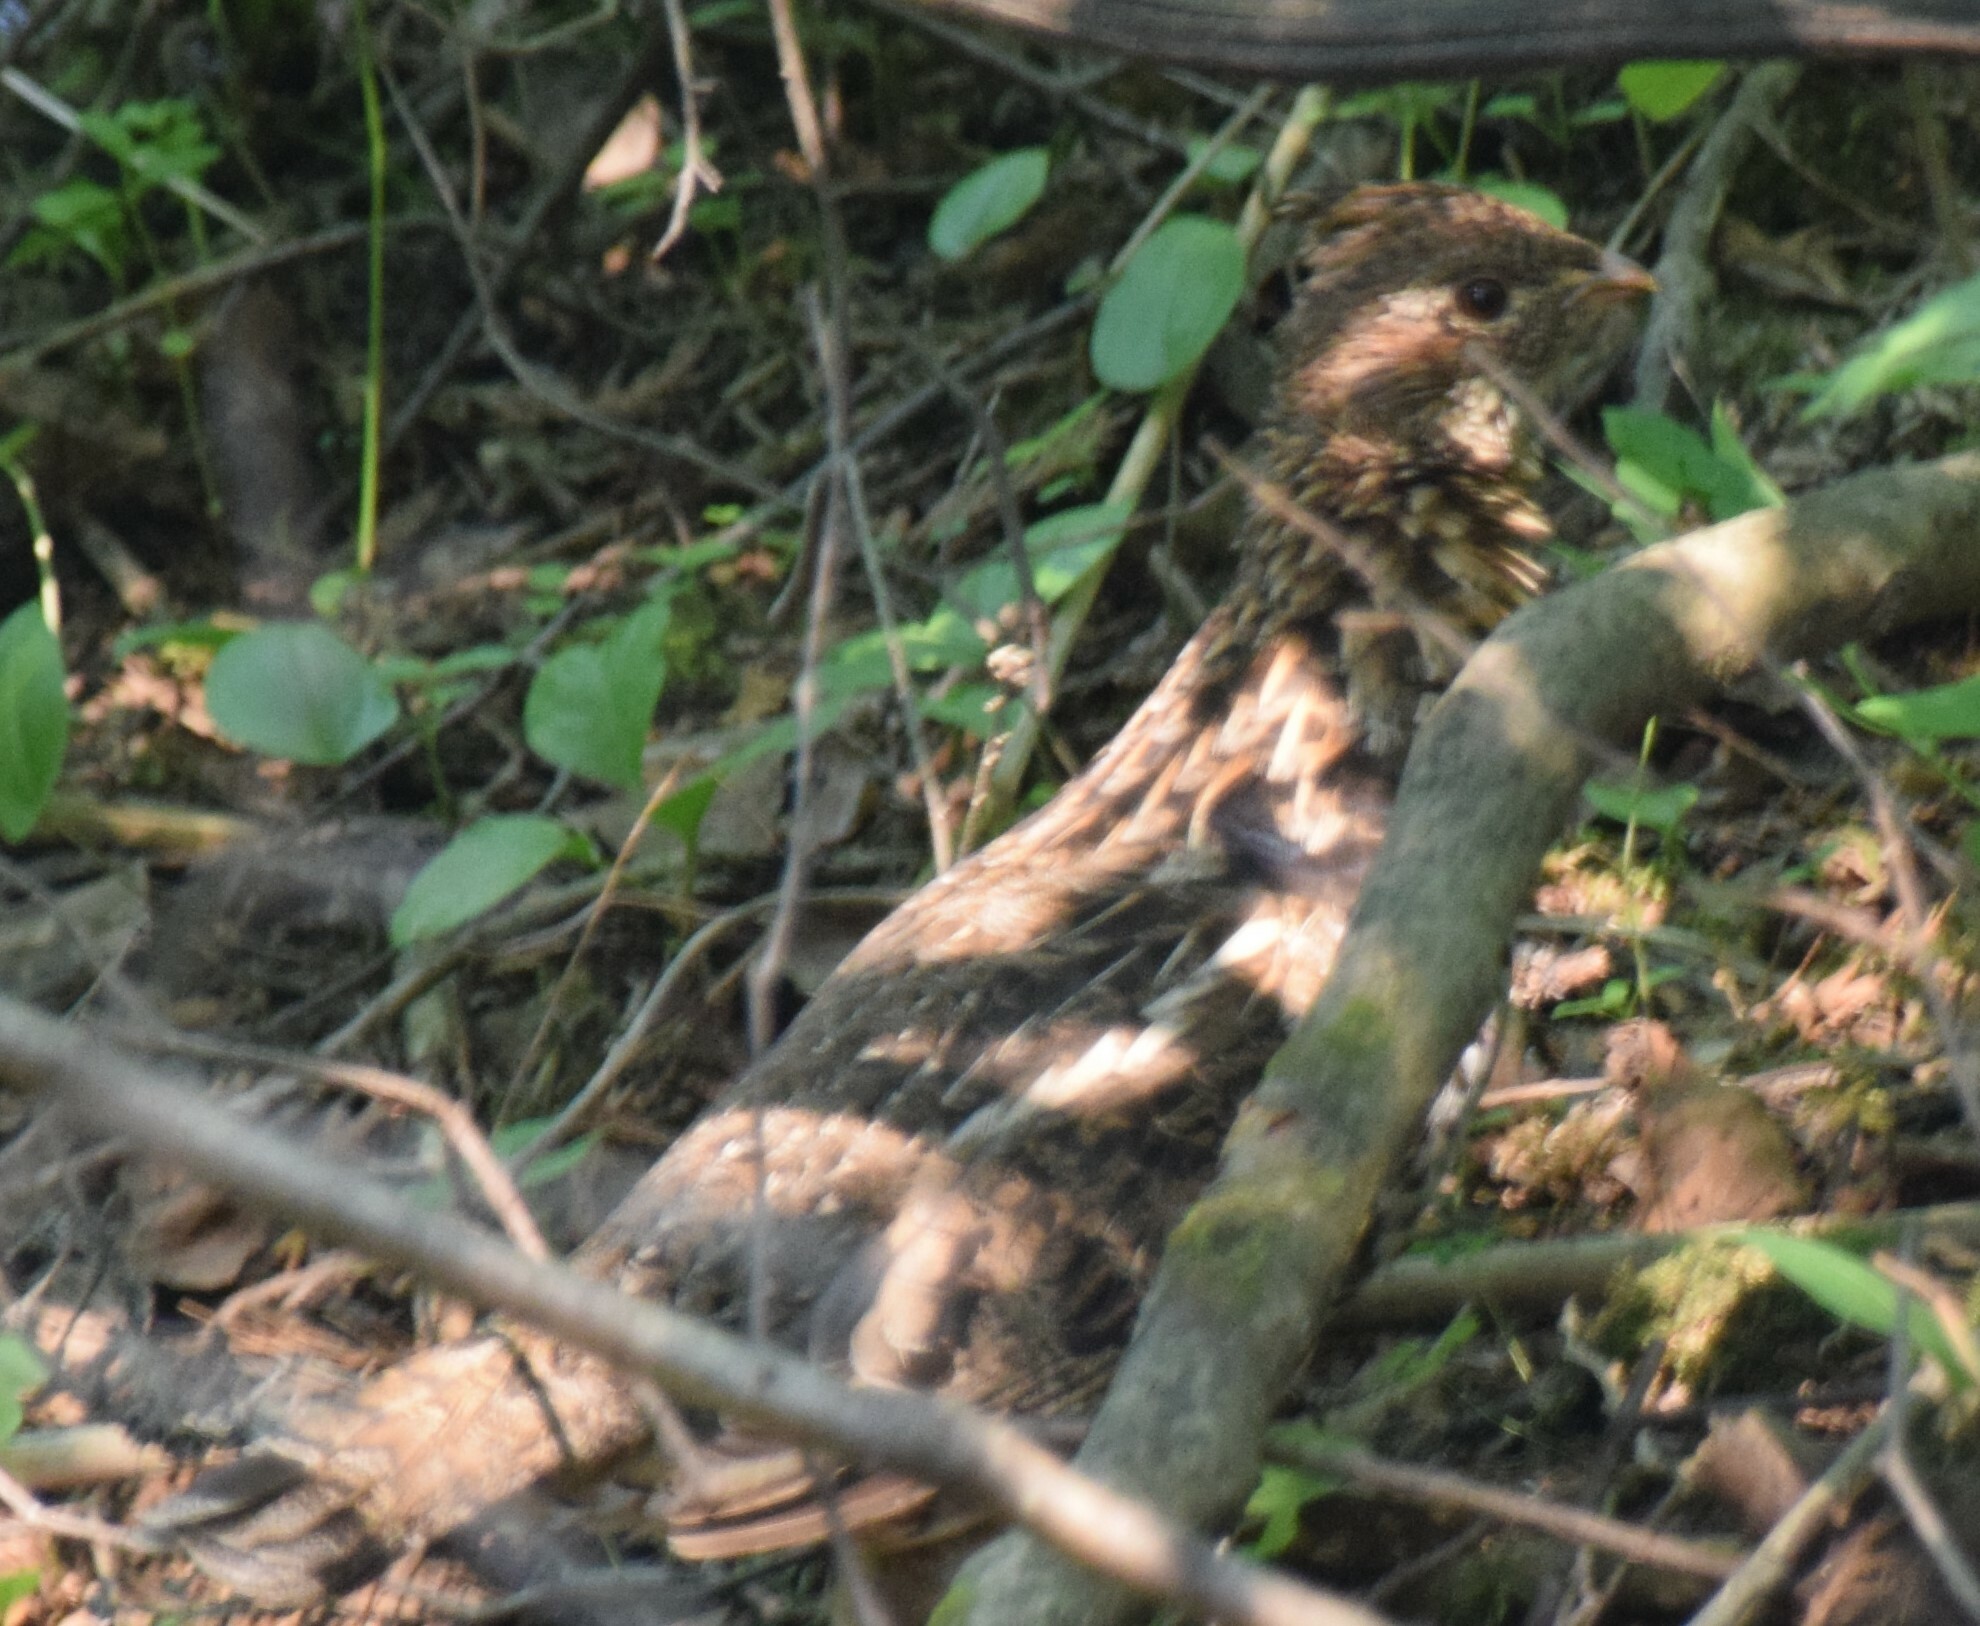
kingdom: Animalia
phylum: Chordata
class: Aves
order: Galliformes
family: Phasianidae
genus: Bonasa
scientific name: Bonasa umbellus
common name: Ruffed grouse
